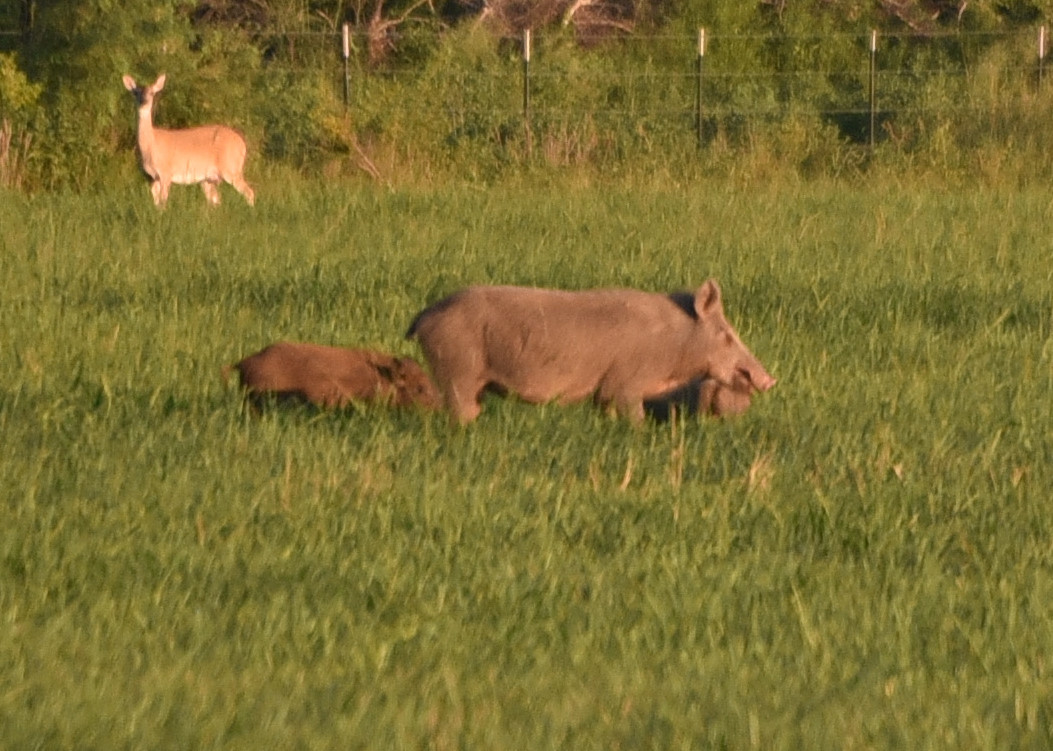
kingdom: Animalia
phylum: Chordata
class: Mammalia
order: Artiodactyla
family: Suidae
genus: Sus
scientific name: Sus scrofa
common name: Wild boar
